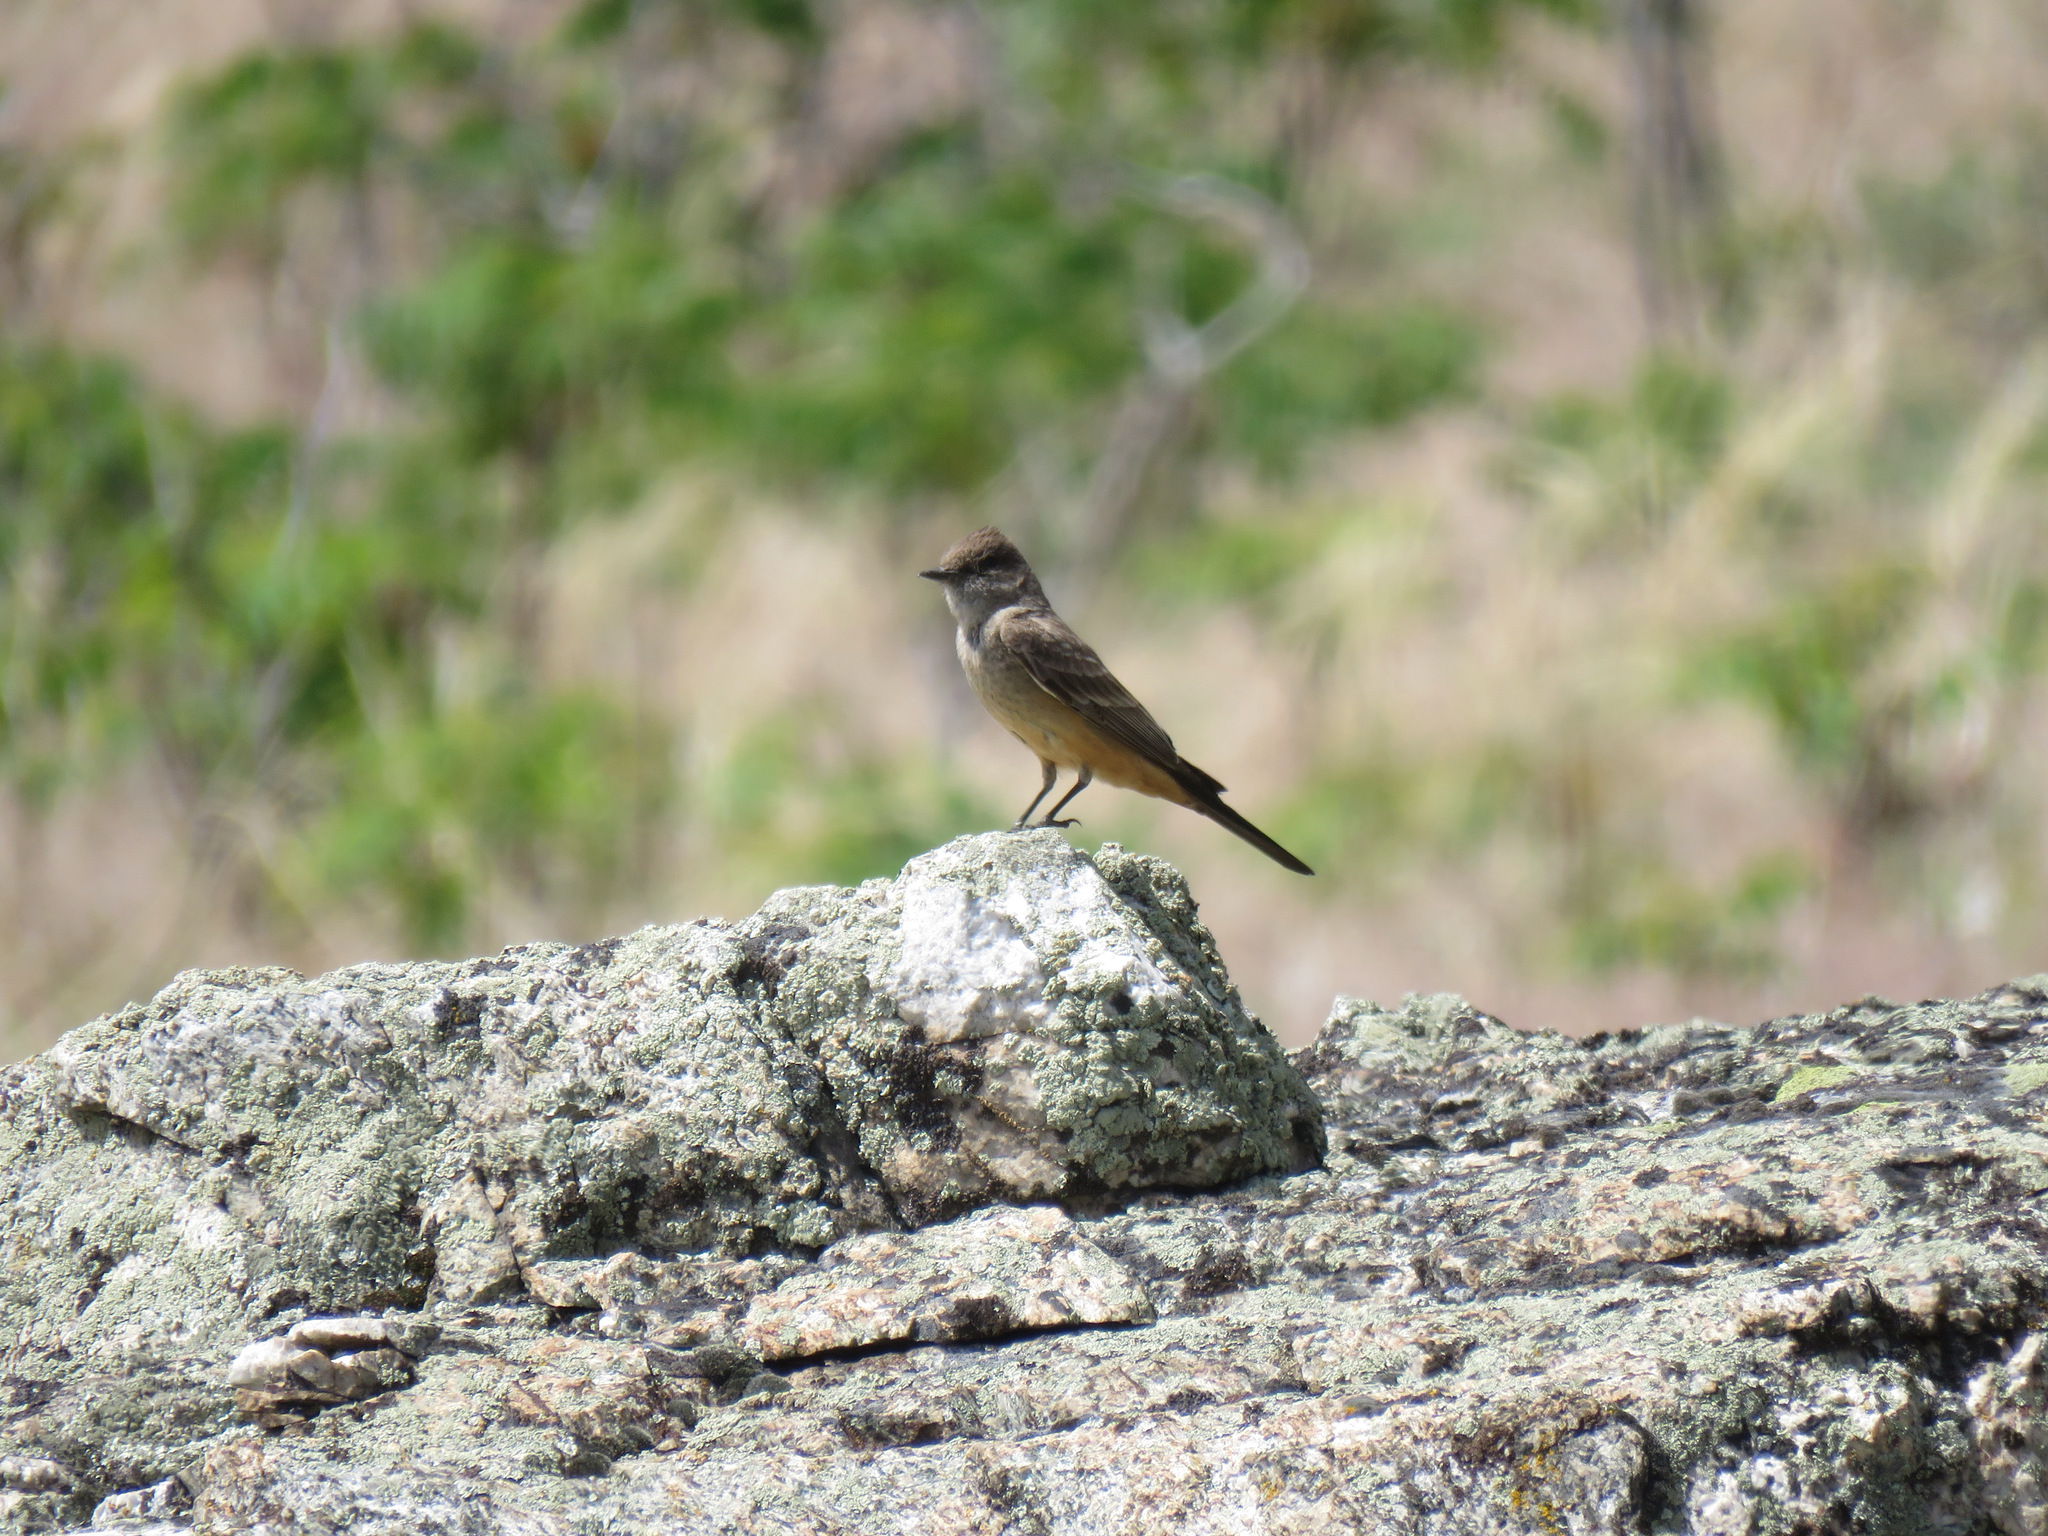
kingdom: Animalia
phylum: Chordata
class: Aves
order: Passeriformes
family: Tyrannidae
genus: Sayornis
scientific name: Sayornis saya
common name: Say's phoebe
